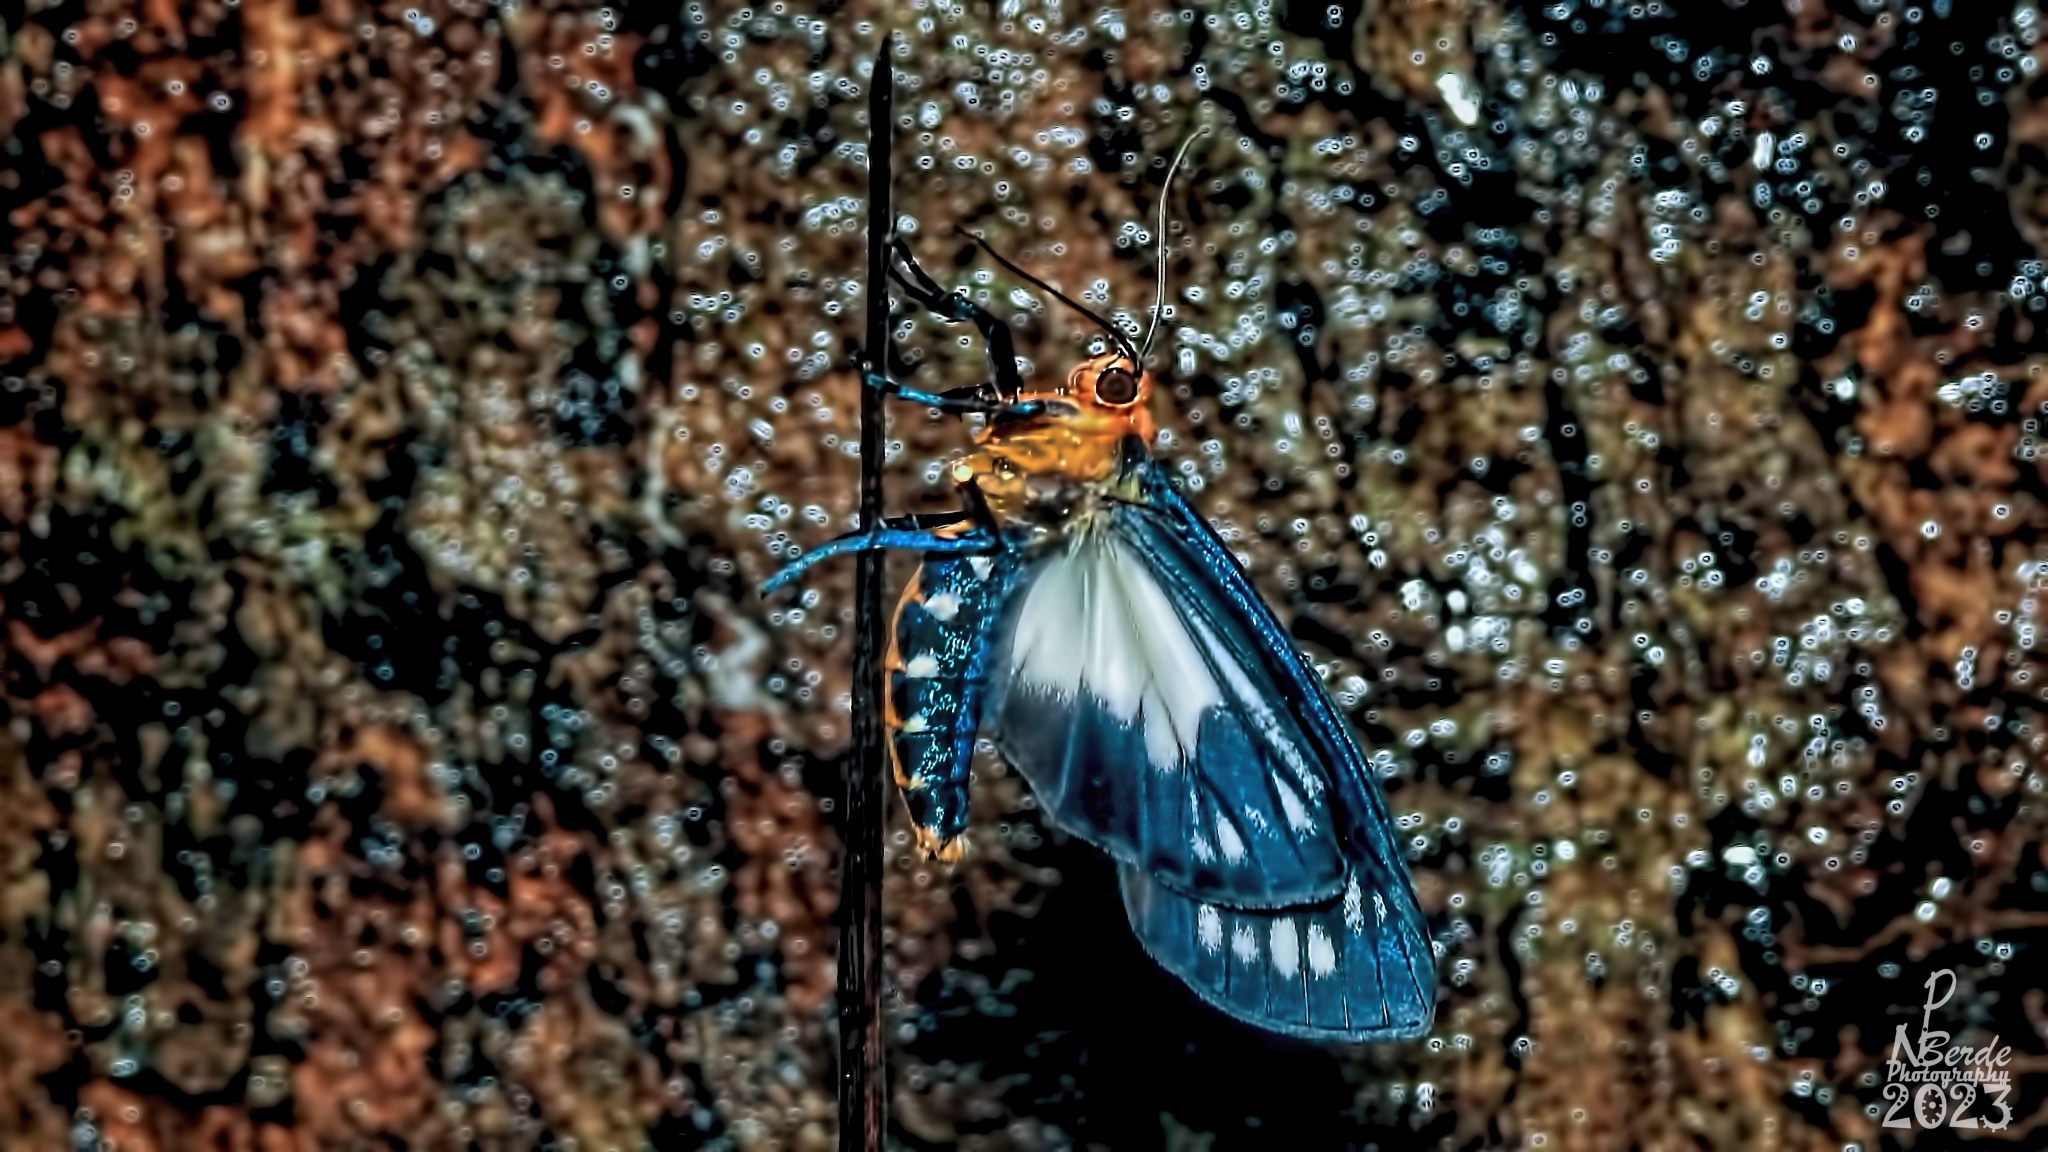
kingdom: Animalia
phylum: Arthropoda
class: Insecta
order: Lepidoptera
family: Erebidae
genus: Macrobrochis
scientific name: Macrobrochis gigas
